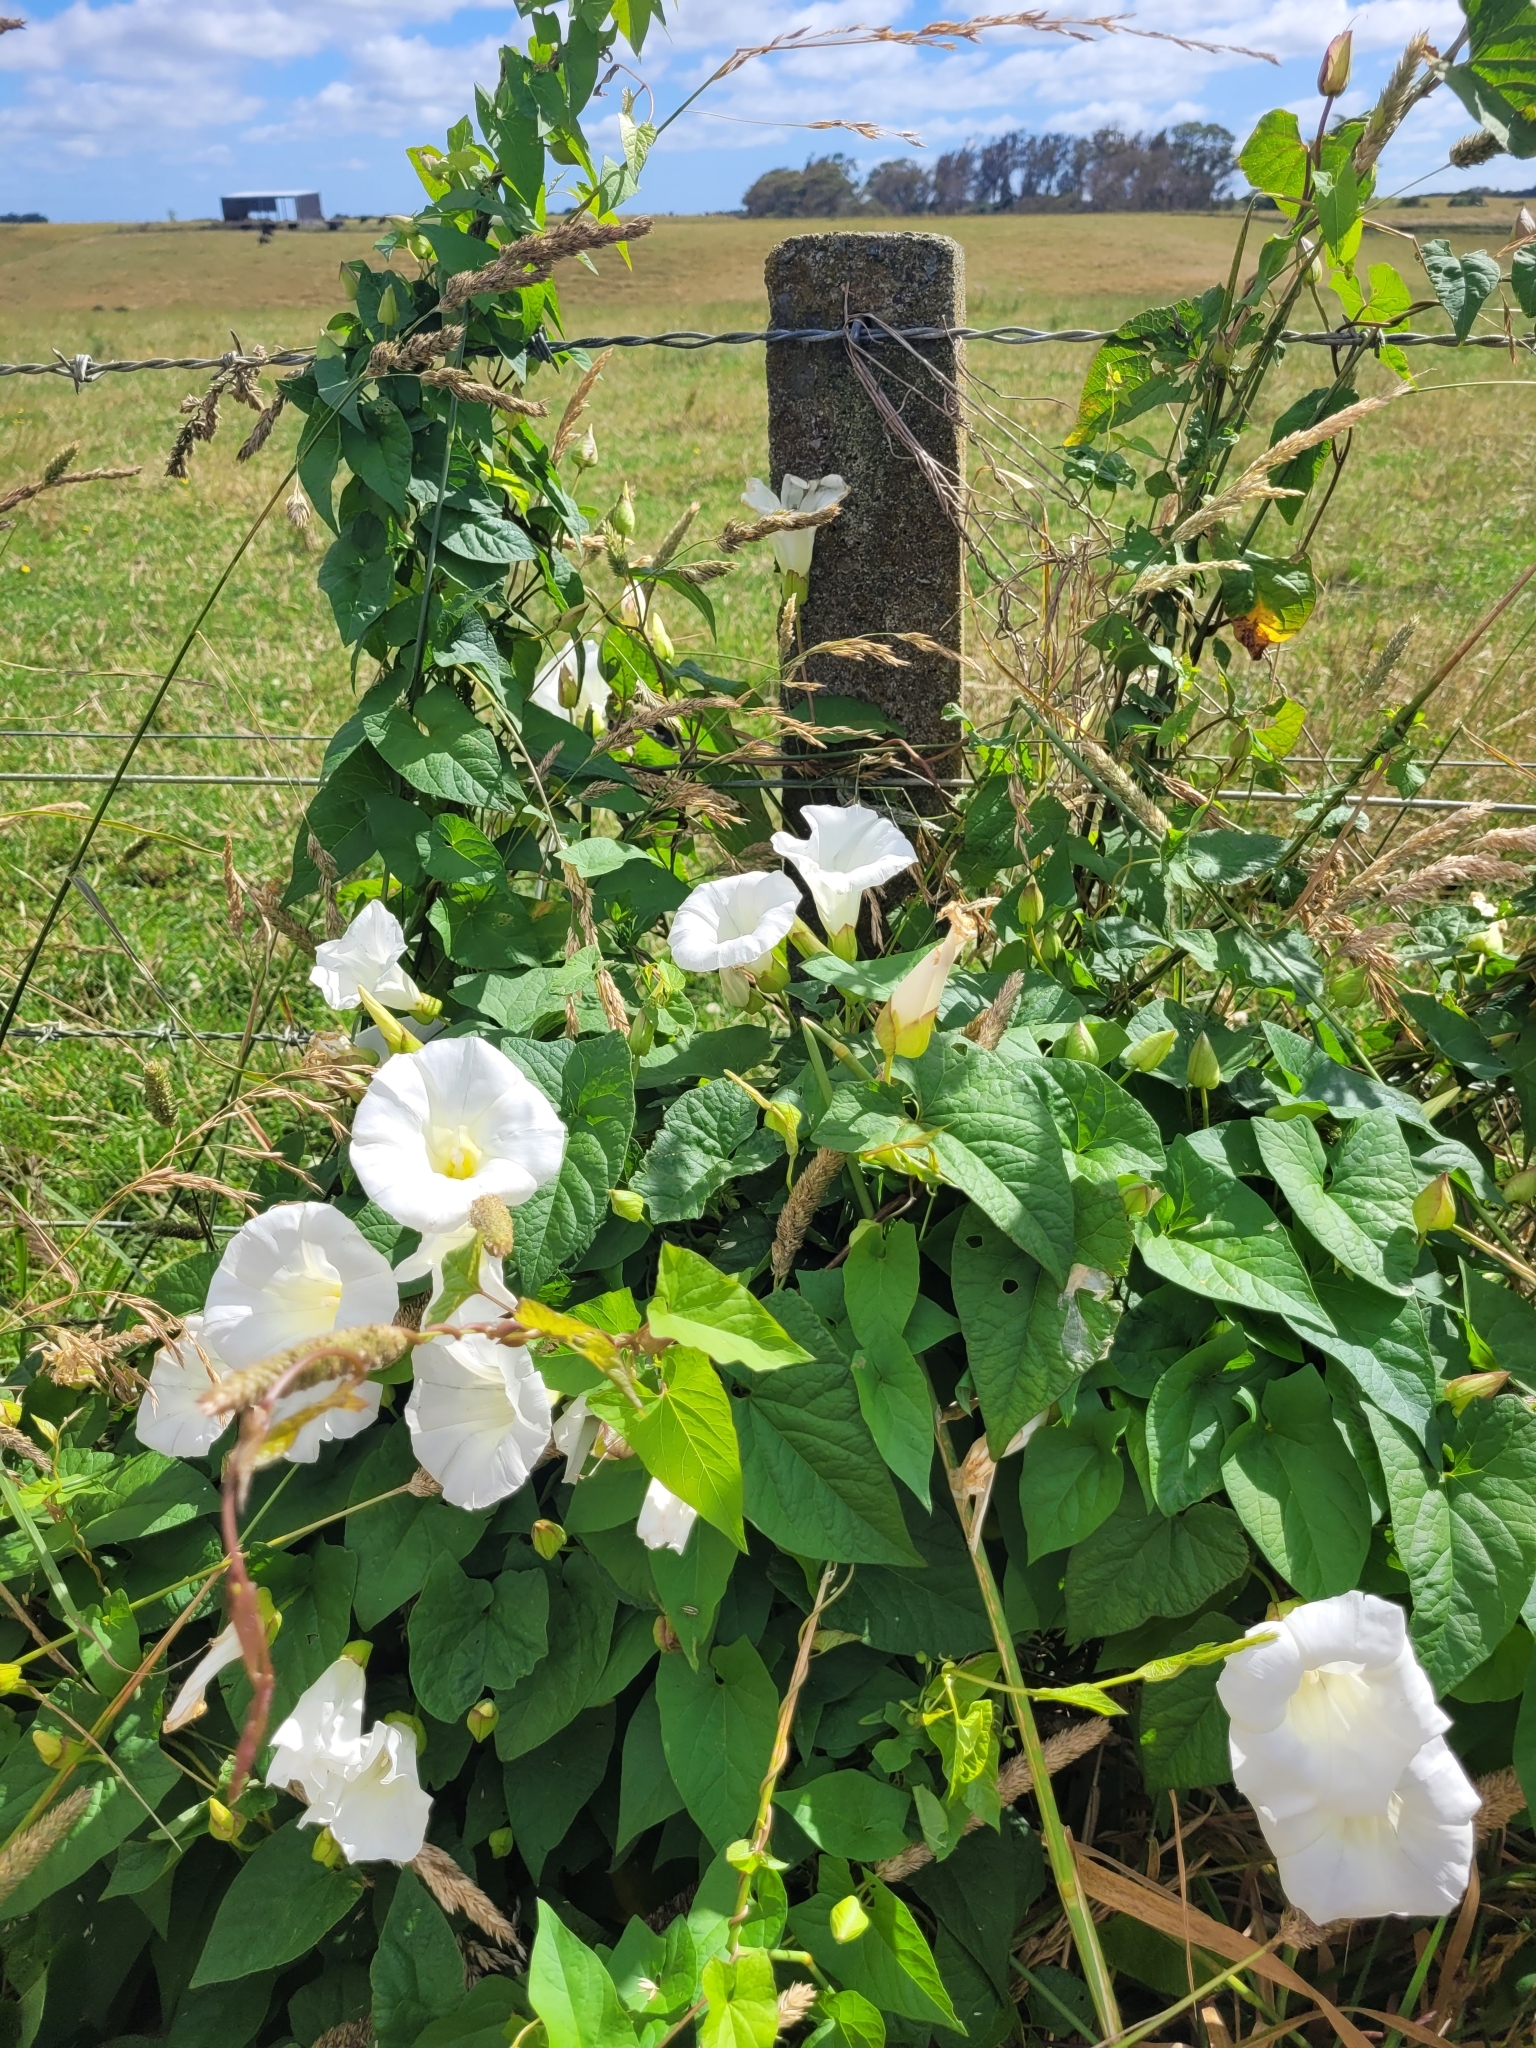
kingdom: Plantae
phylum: Tracheophyta
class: Magnoliopsida
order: Solanales
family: Convolvulaceae
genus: Calystegia
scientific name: Calystegia silvatica
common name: Large bindweed
